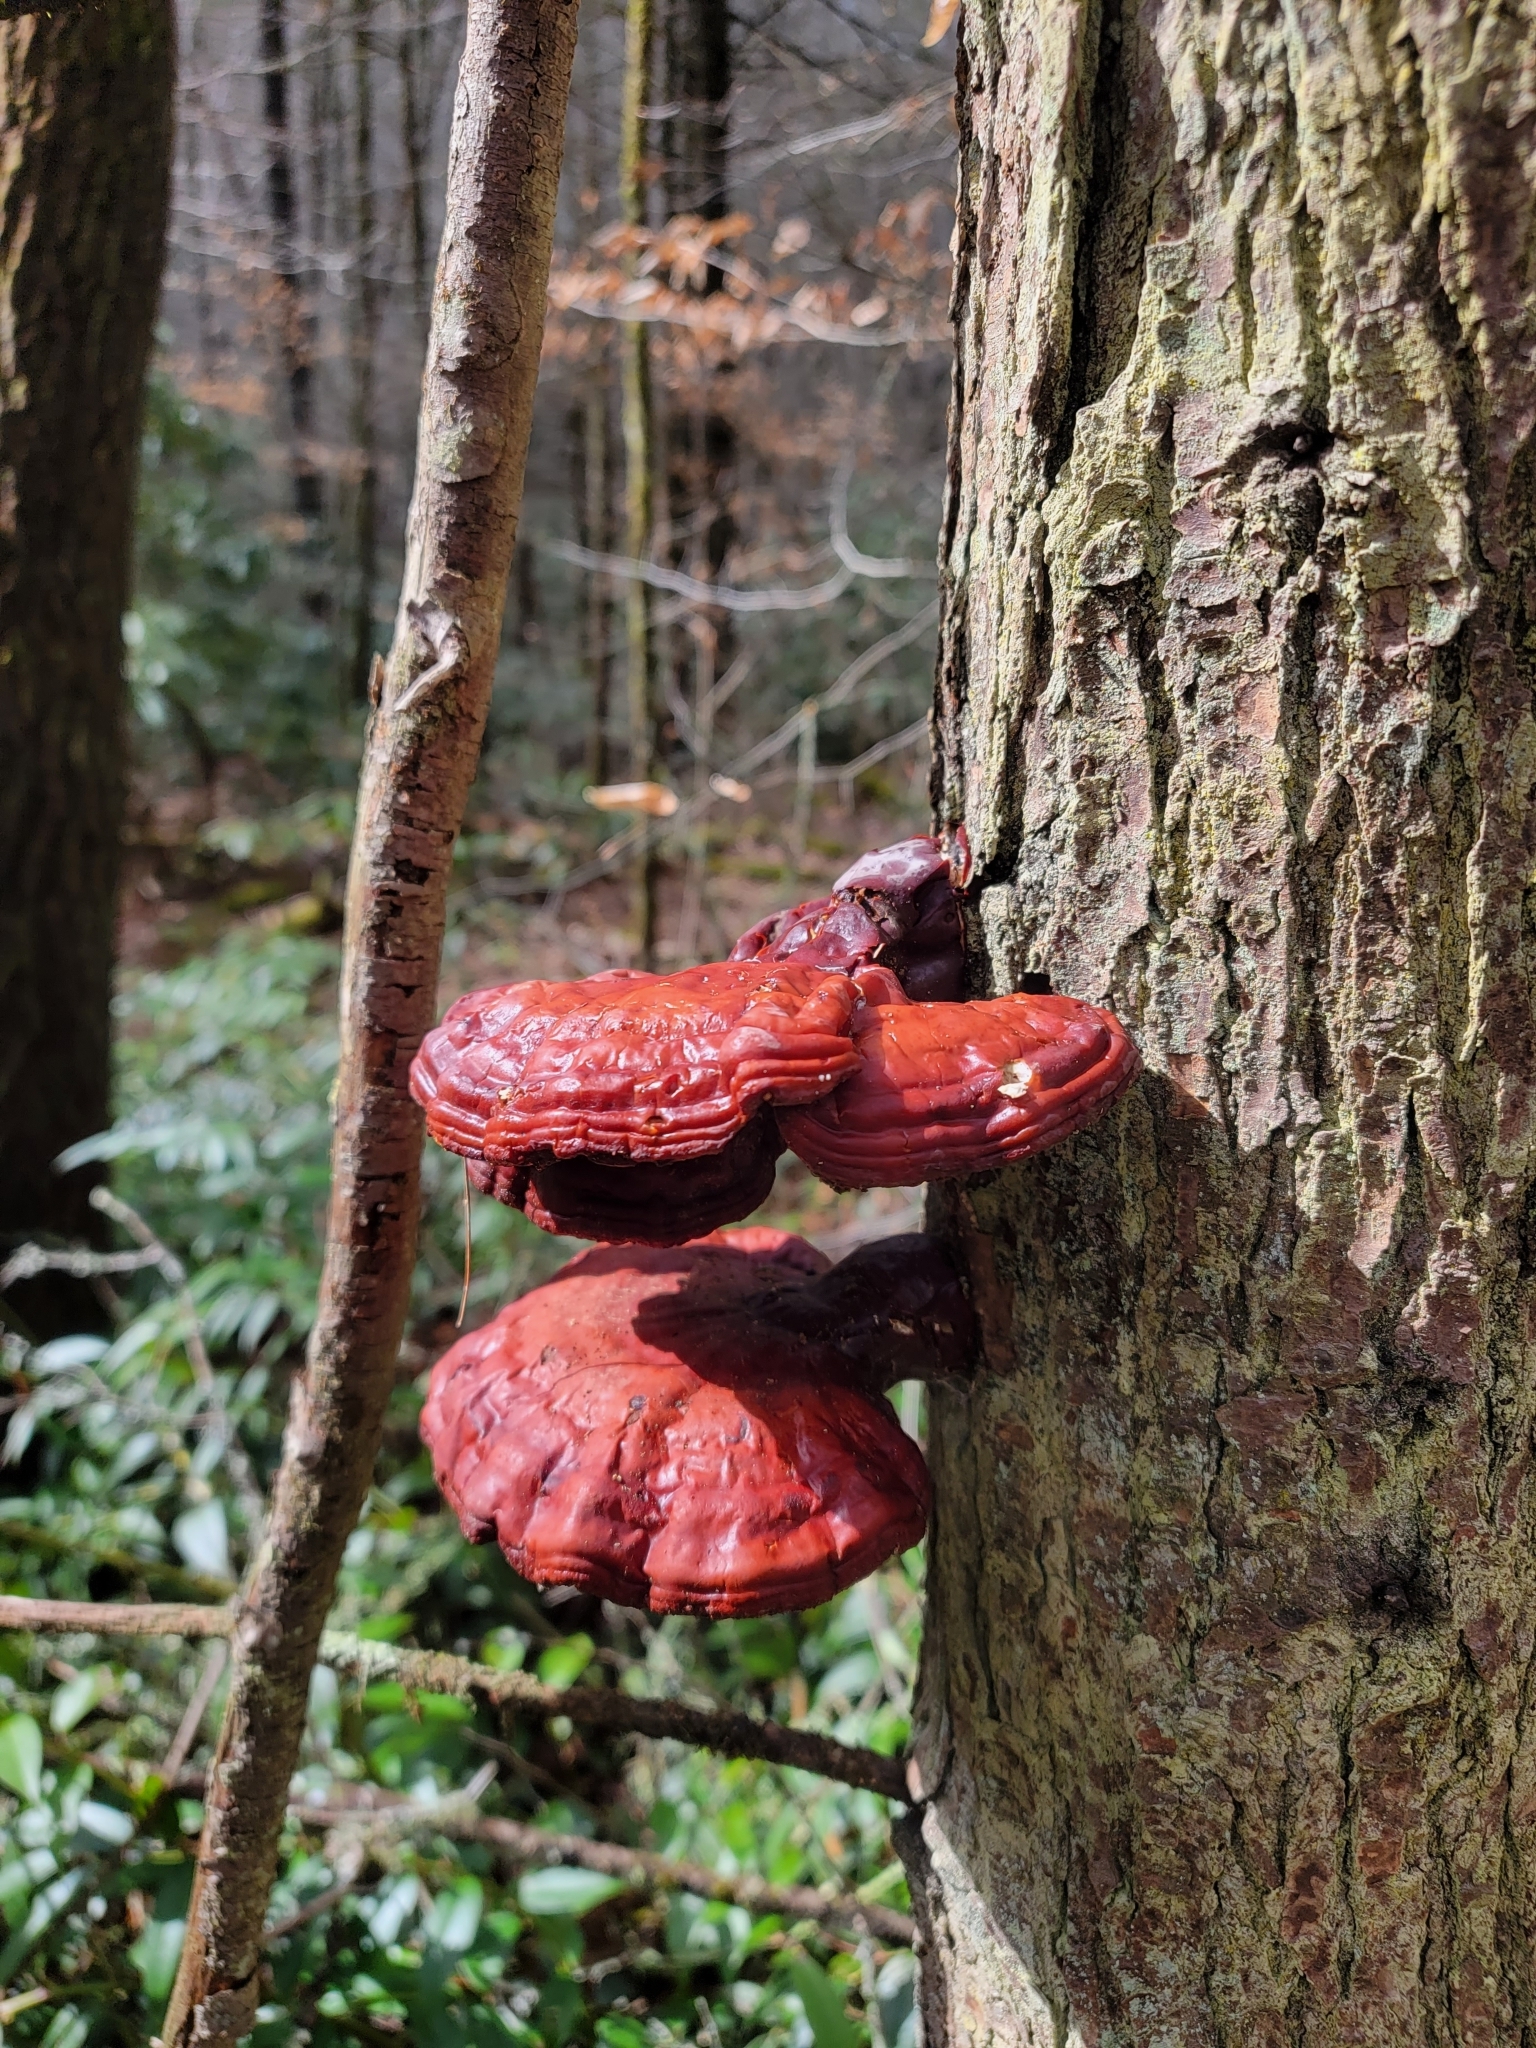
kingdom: Fungi
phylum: Basidiomycota
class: Agaricomycetes
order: Polyporales
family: Polyporaceae
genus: Ganoderma
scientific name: Ganoderma tsugae
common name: Hemlock varnish shelf
